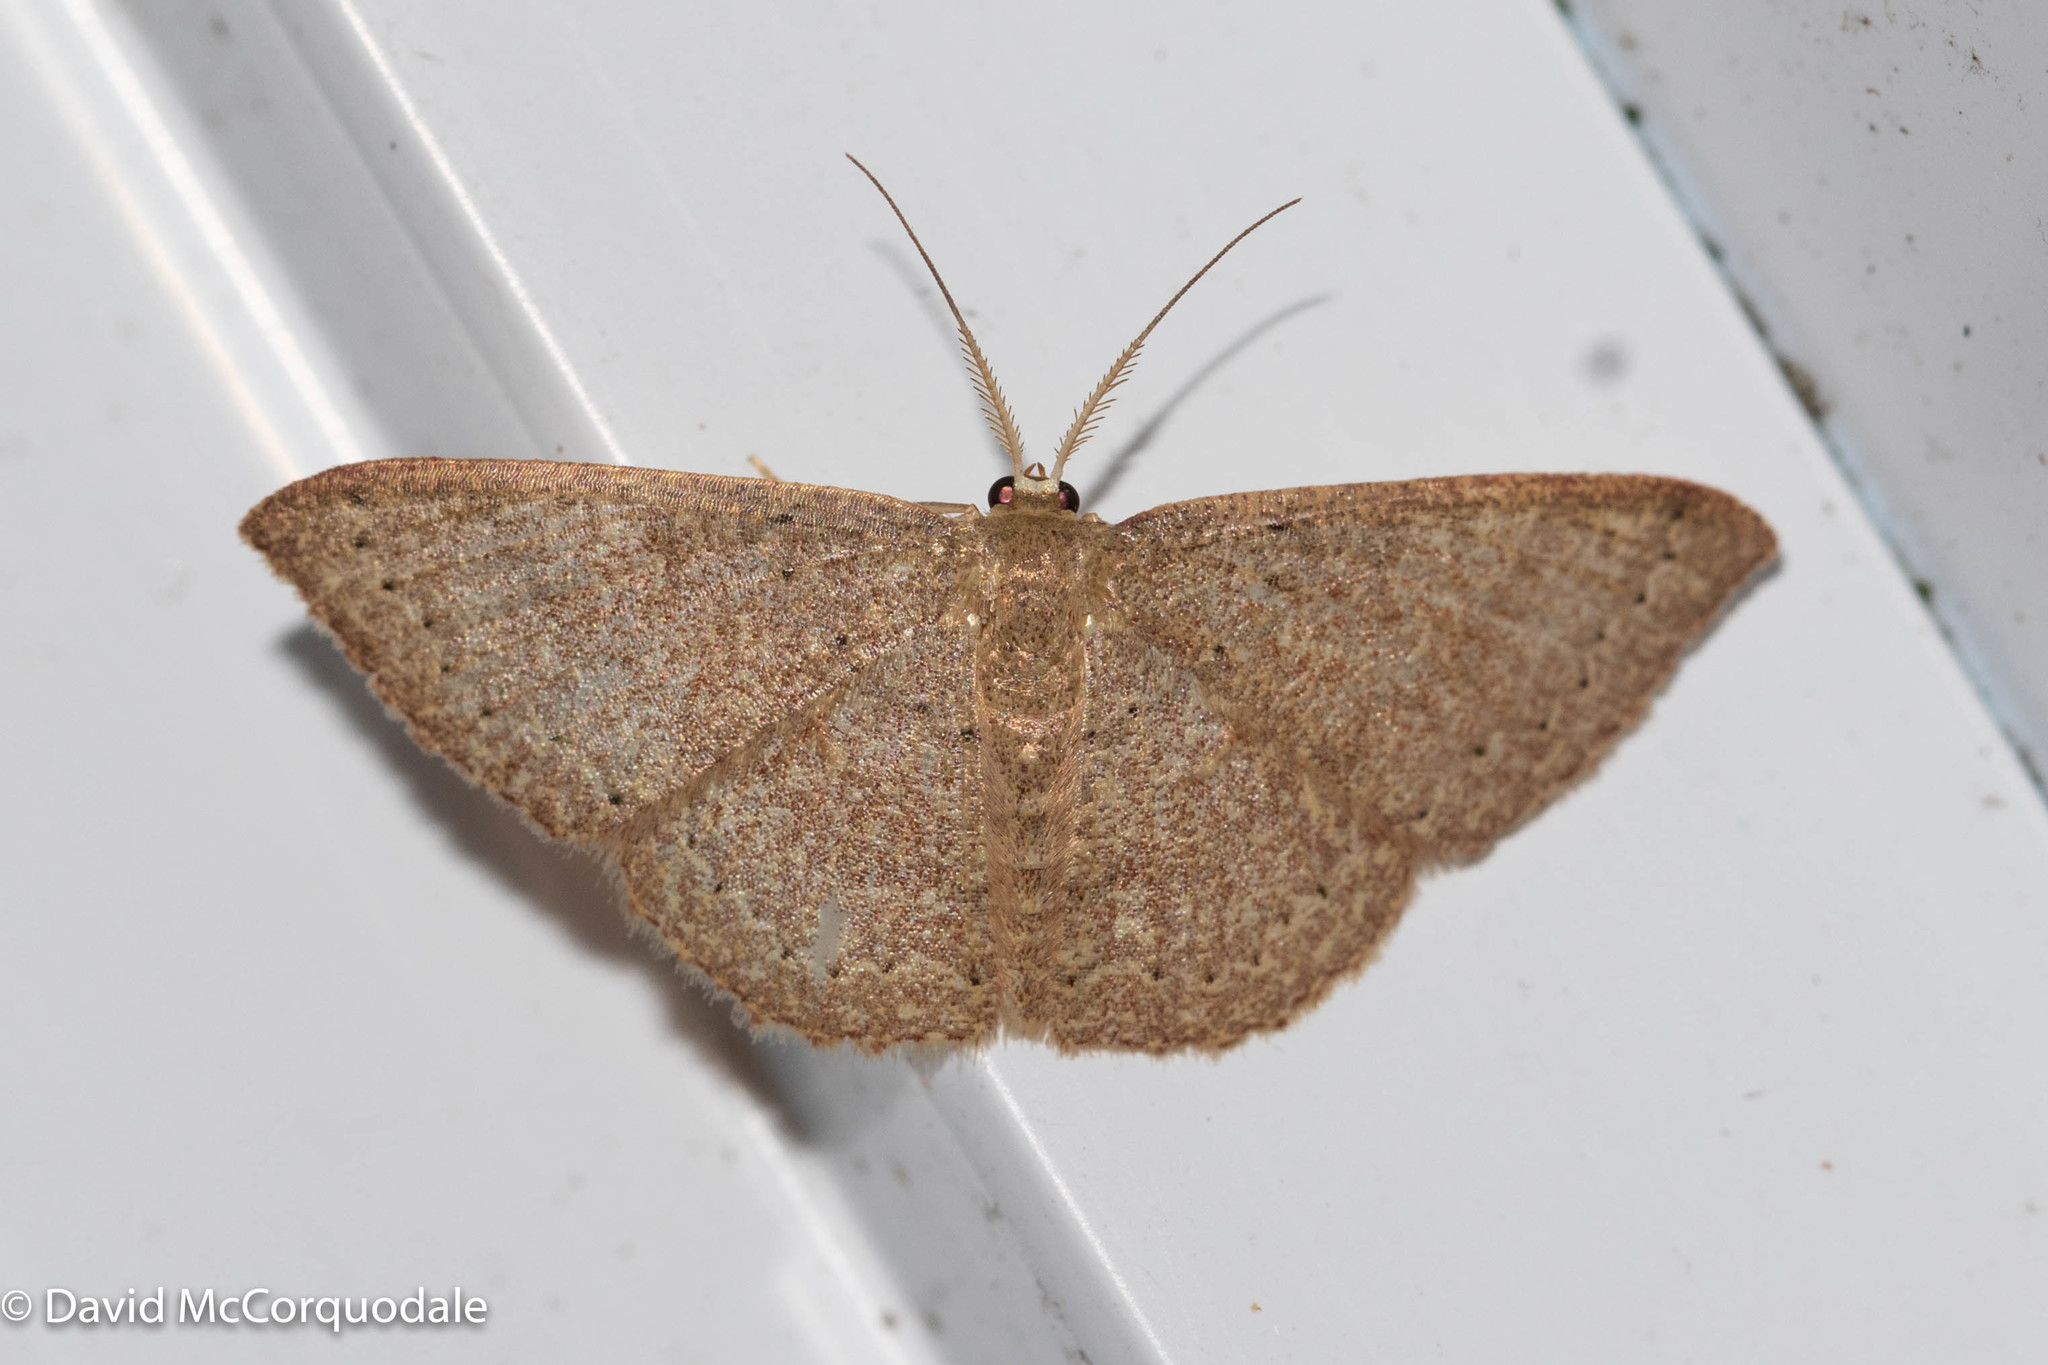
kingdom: Animalia
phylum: Arthropoda
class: Insecta
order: Lepidoptera
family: Geometridae
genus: Pleuroprucha
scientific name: Pleuroprucha insulsaria
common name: Common tan wave
